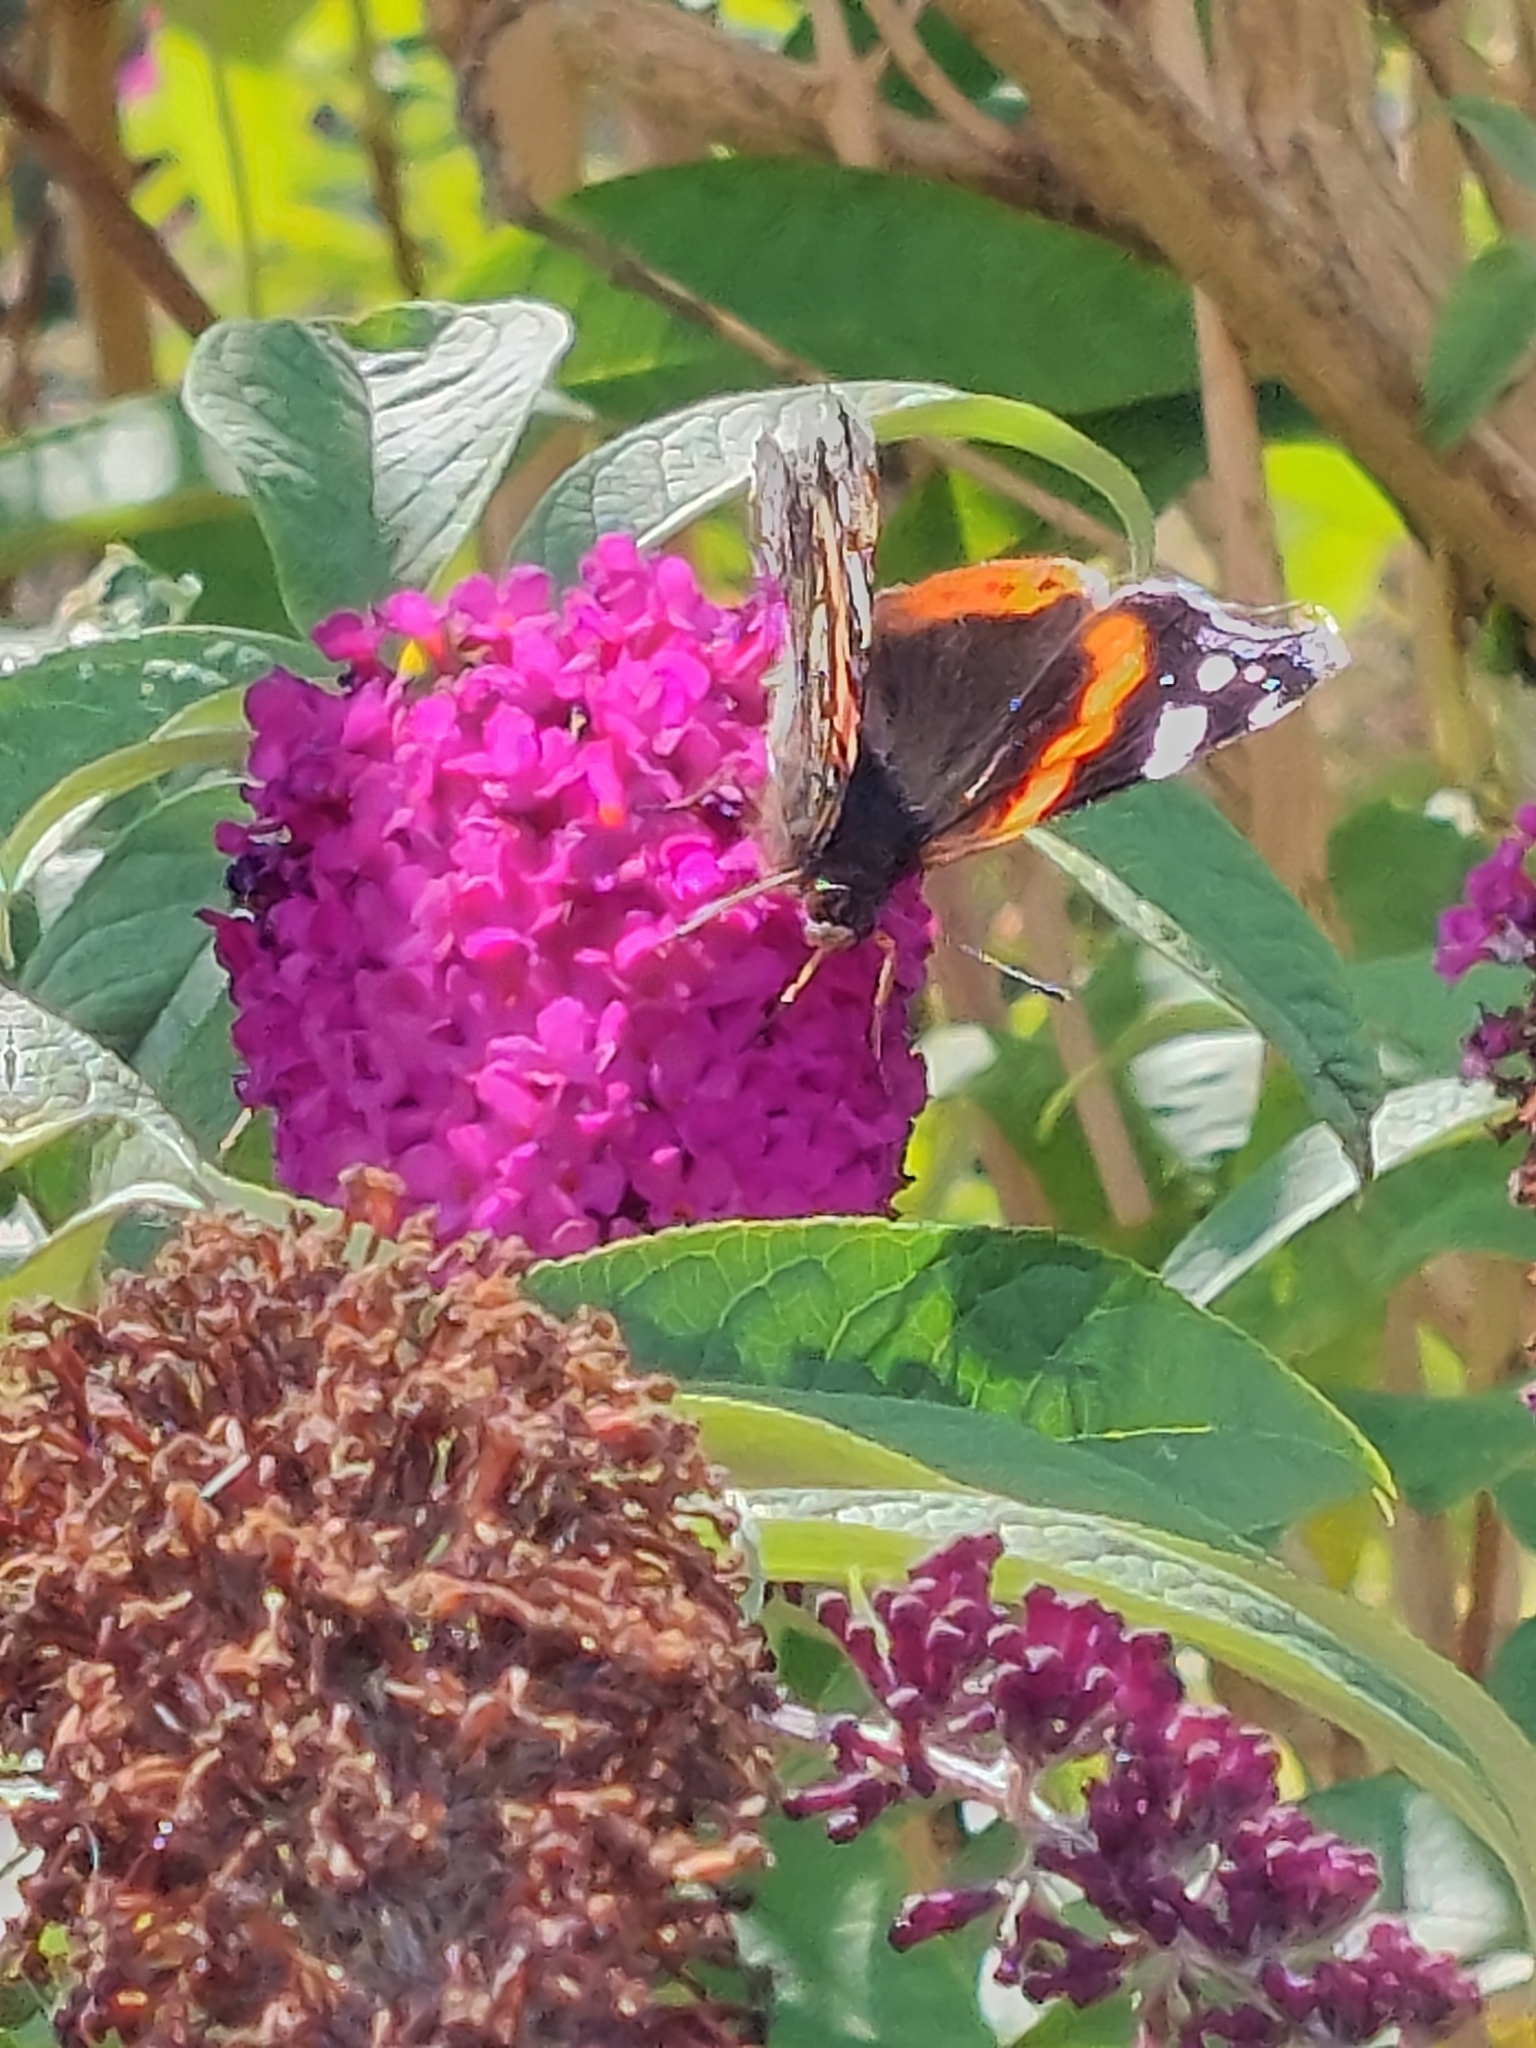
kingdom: Animalia
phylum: Arthropoda
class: Insecta
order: Lepidoptera
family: Nymphalidae
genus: Vanessa
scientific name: Vanessa atalanta
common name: Red admiral
